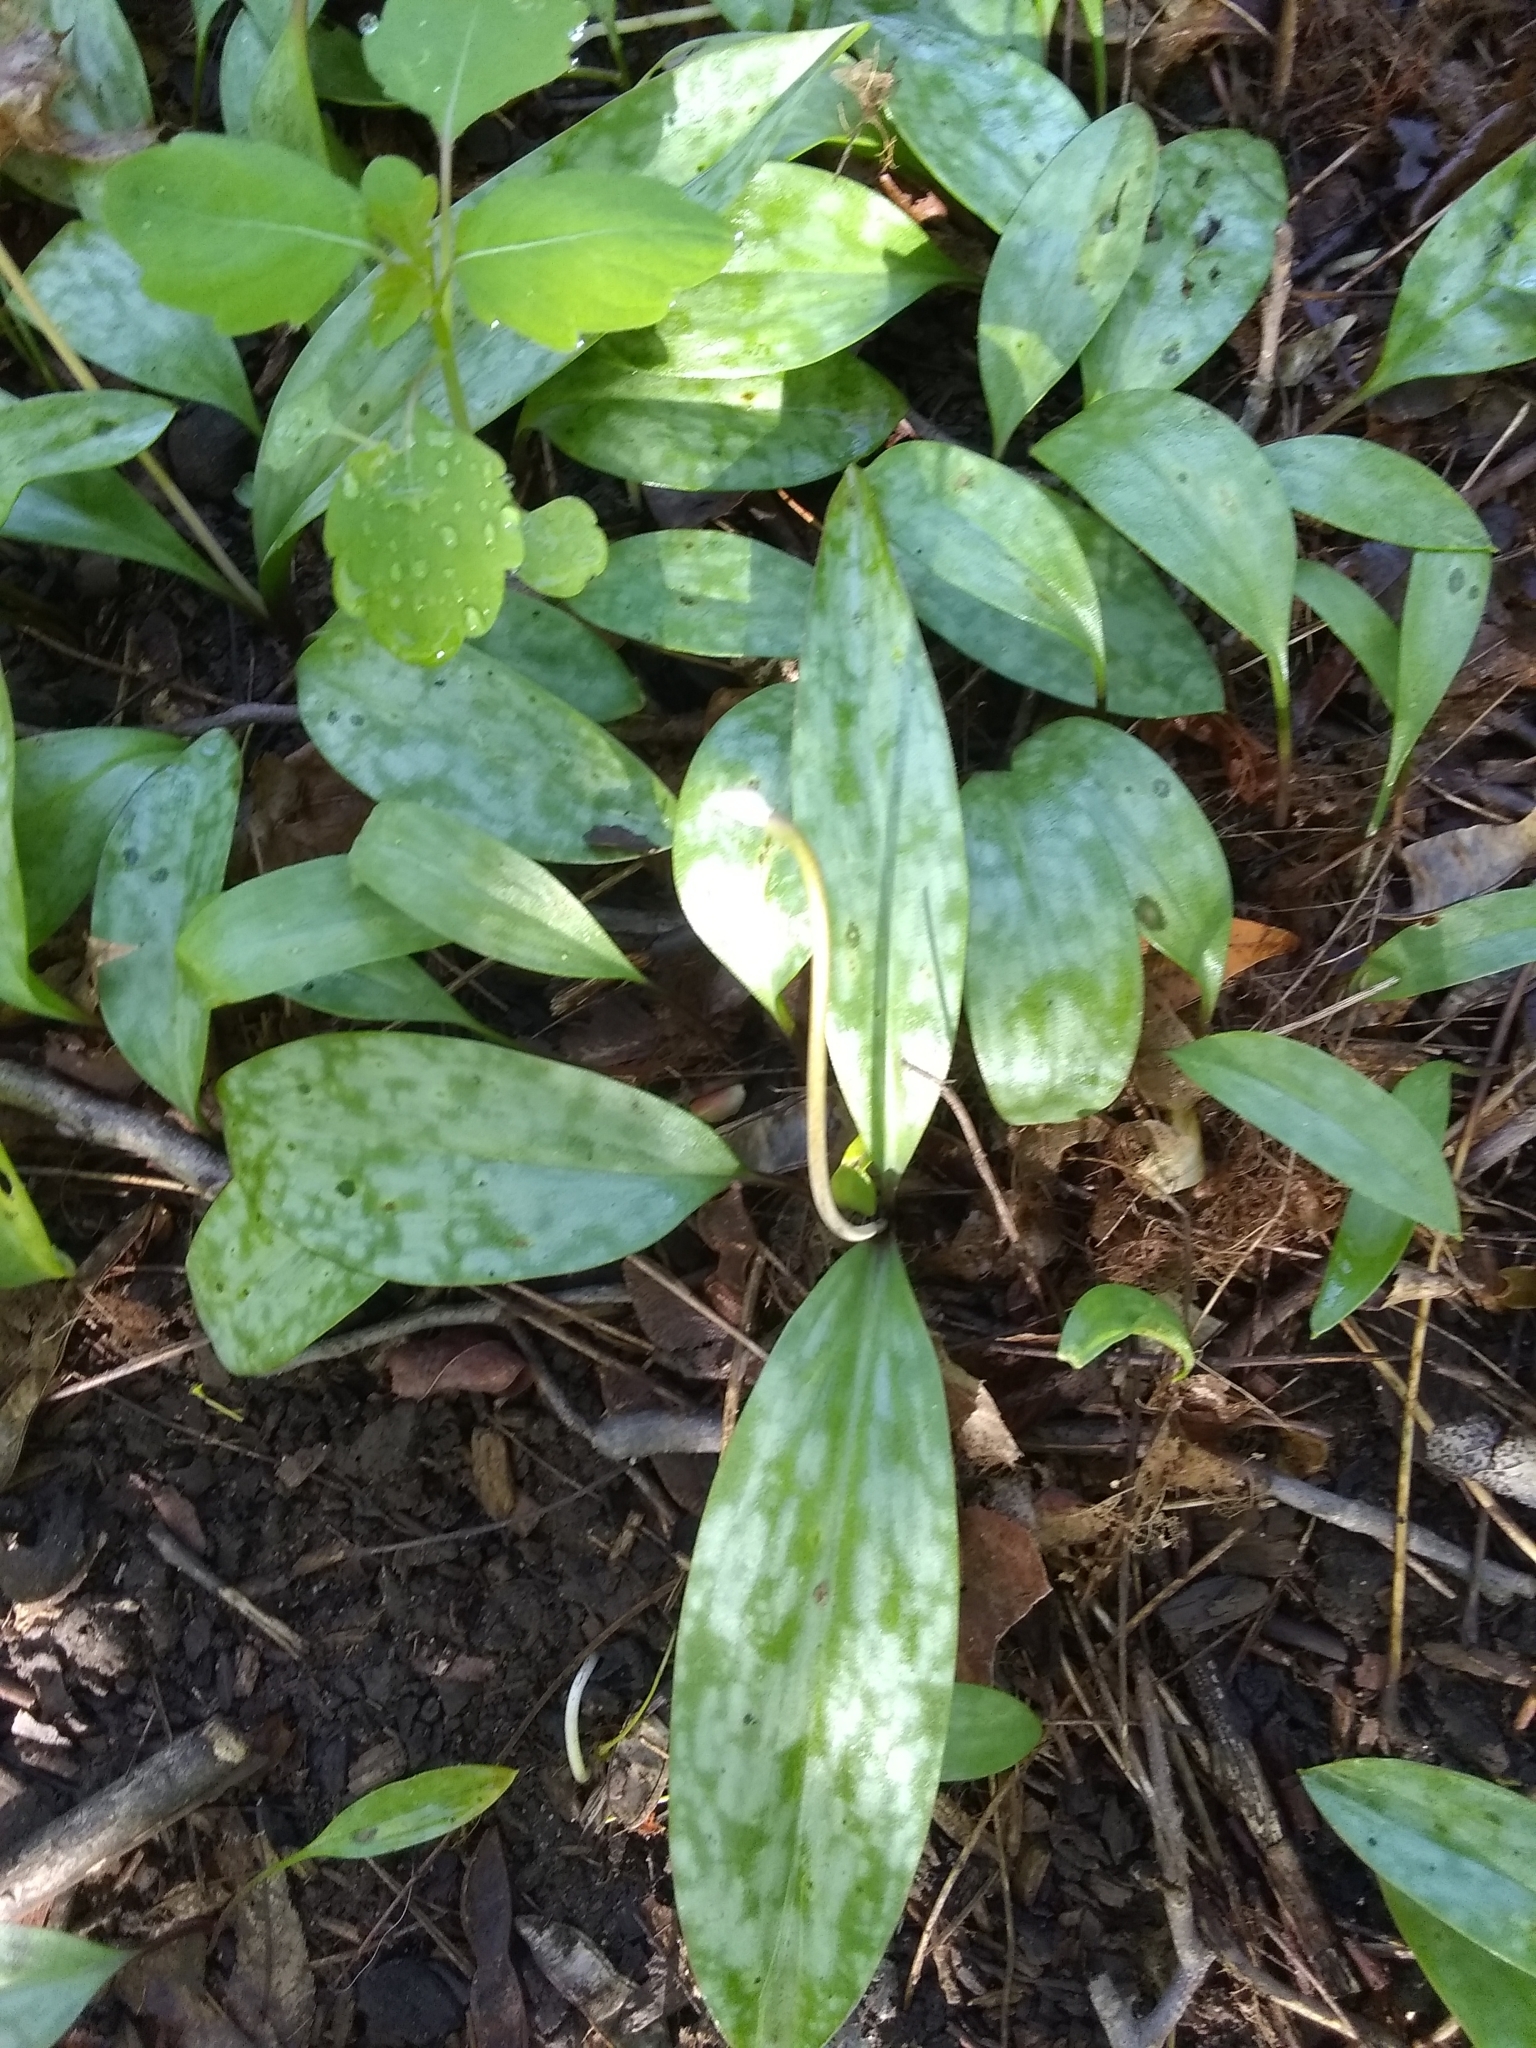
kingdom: Plantae
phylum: Tracheophyta
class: Liliopsida
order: Liliales
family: Liliaceae
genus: Erythronium
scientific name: Erythronium americanum
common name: Yellow adder's-tongue
